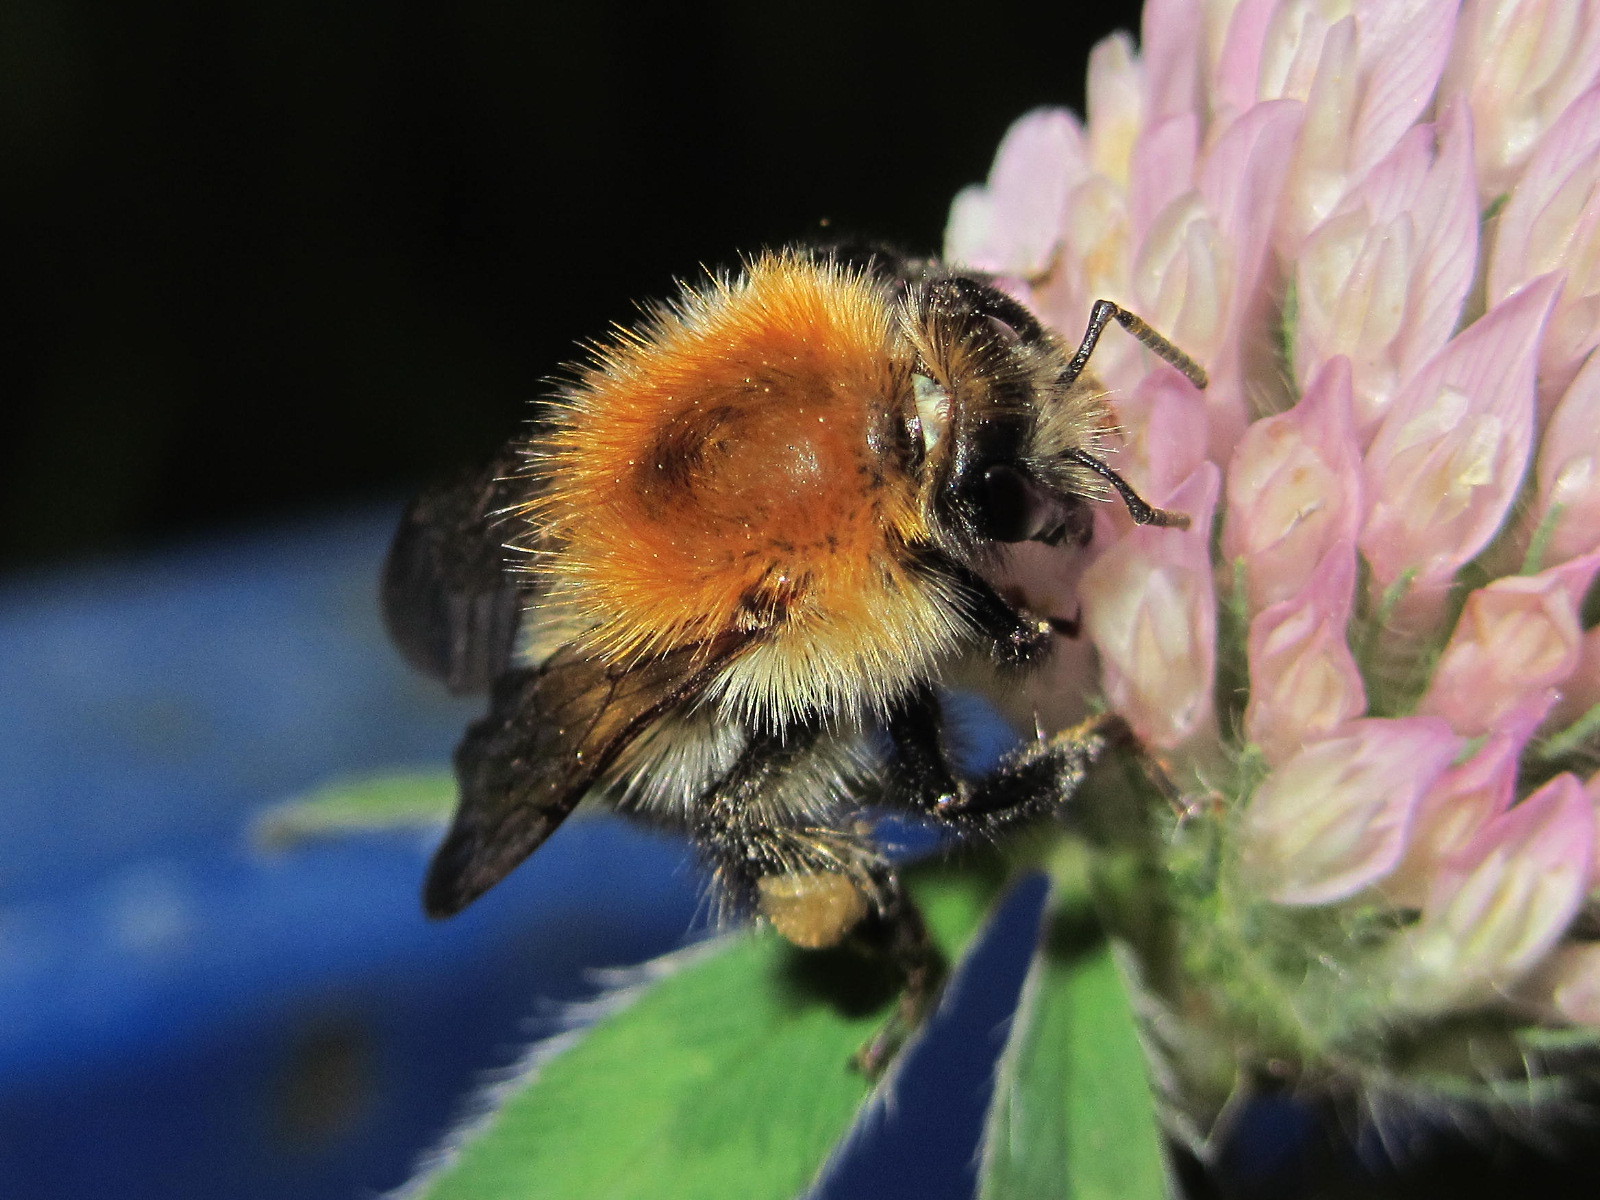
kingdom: Animalia
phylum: Arthropoda
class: Insecta
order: Hymenoptera
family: Apidae
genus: Bombus
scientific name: Bombus pascuorum
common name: Common carder bee
